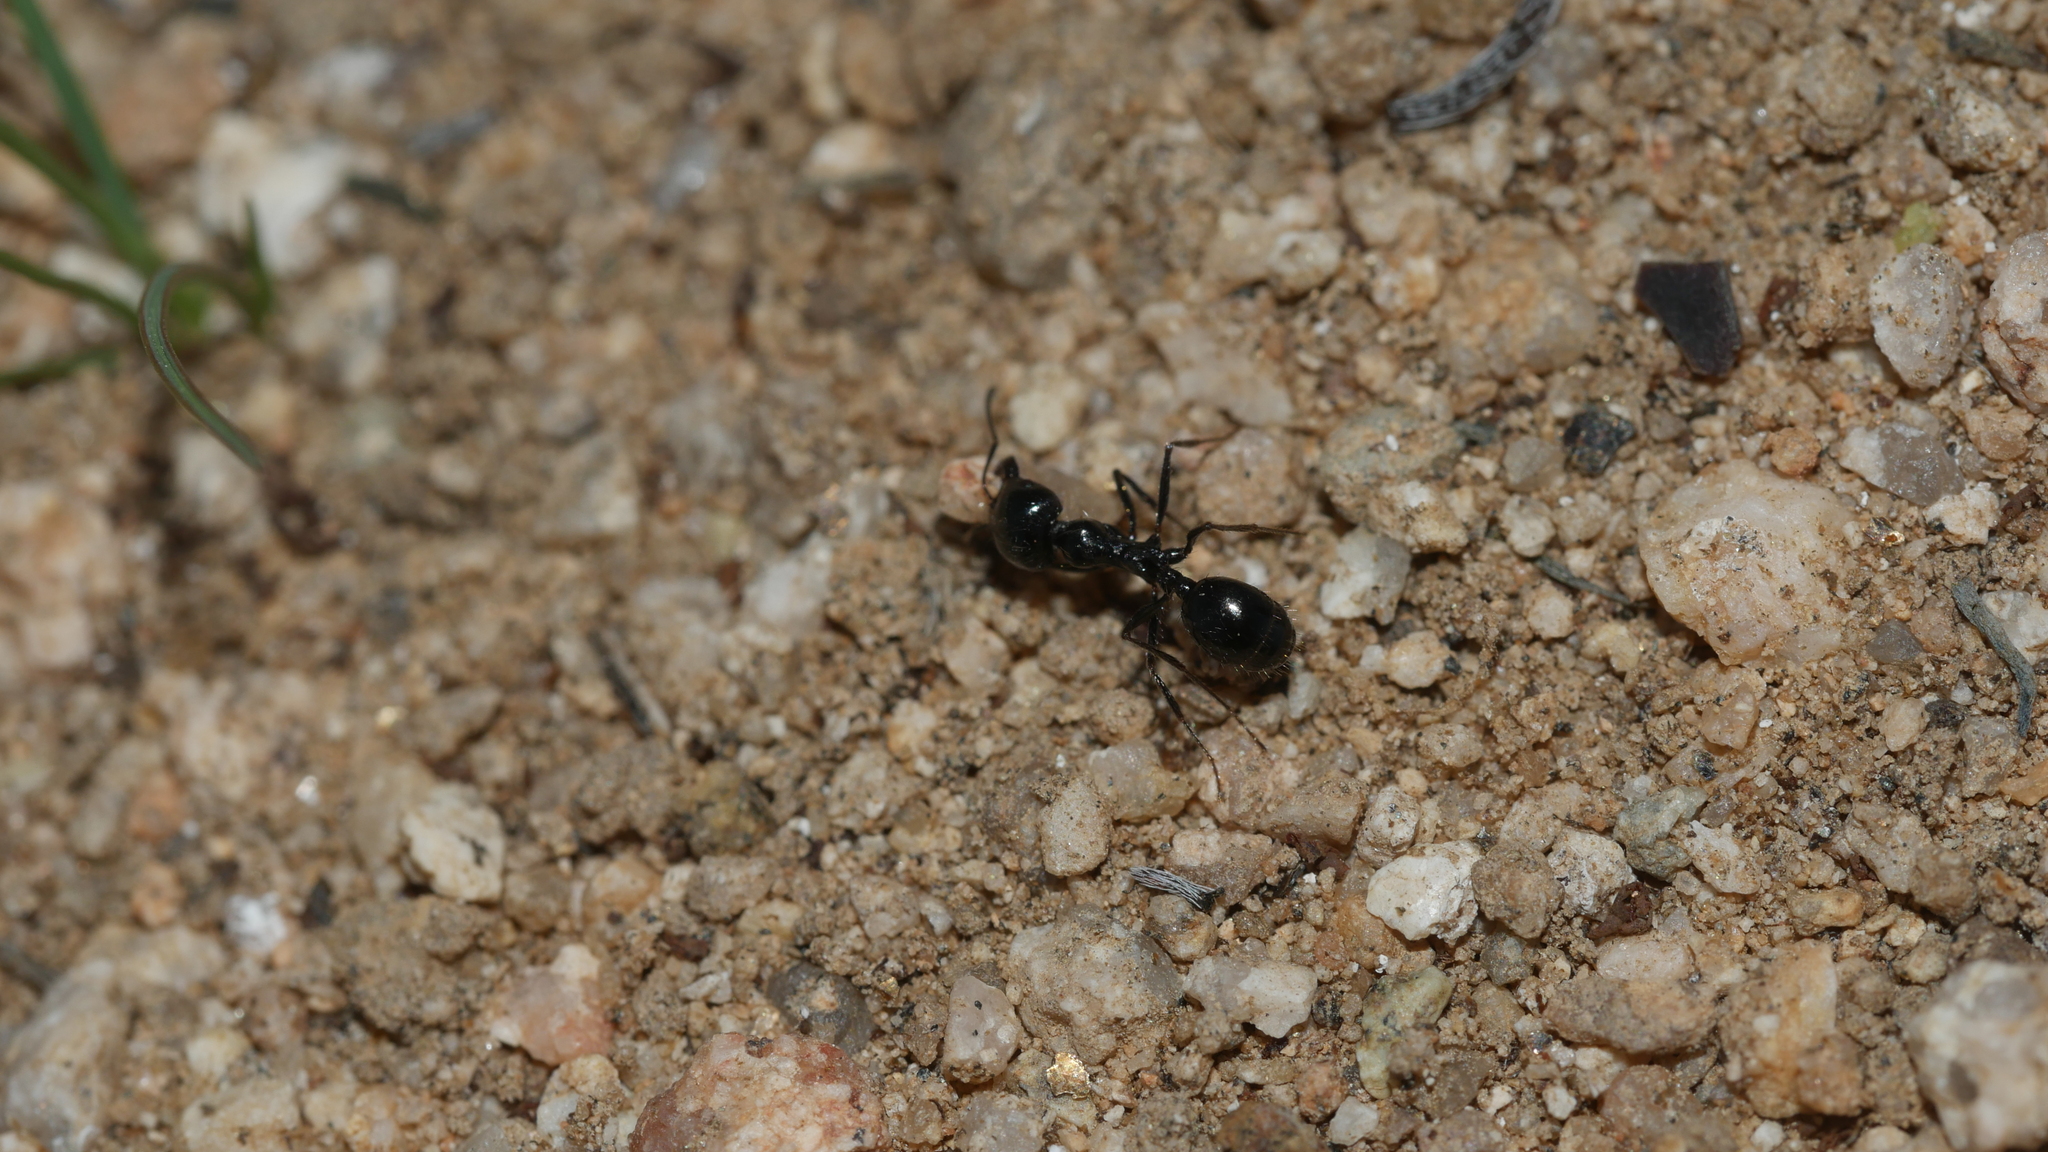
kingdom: Animalia
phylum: Arthropoda
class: Insecta
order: Hymenoptera
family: Formicidae
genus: Messor
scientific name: Messor pergandei
